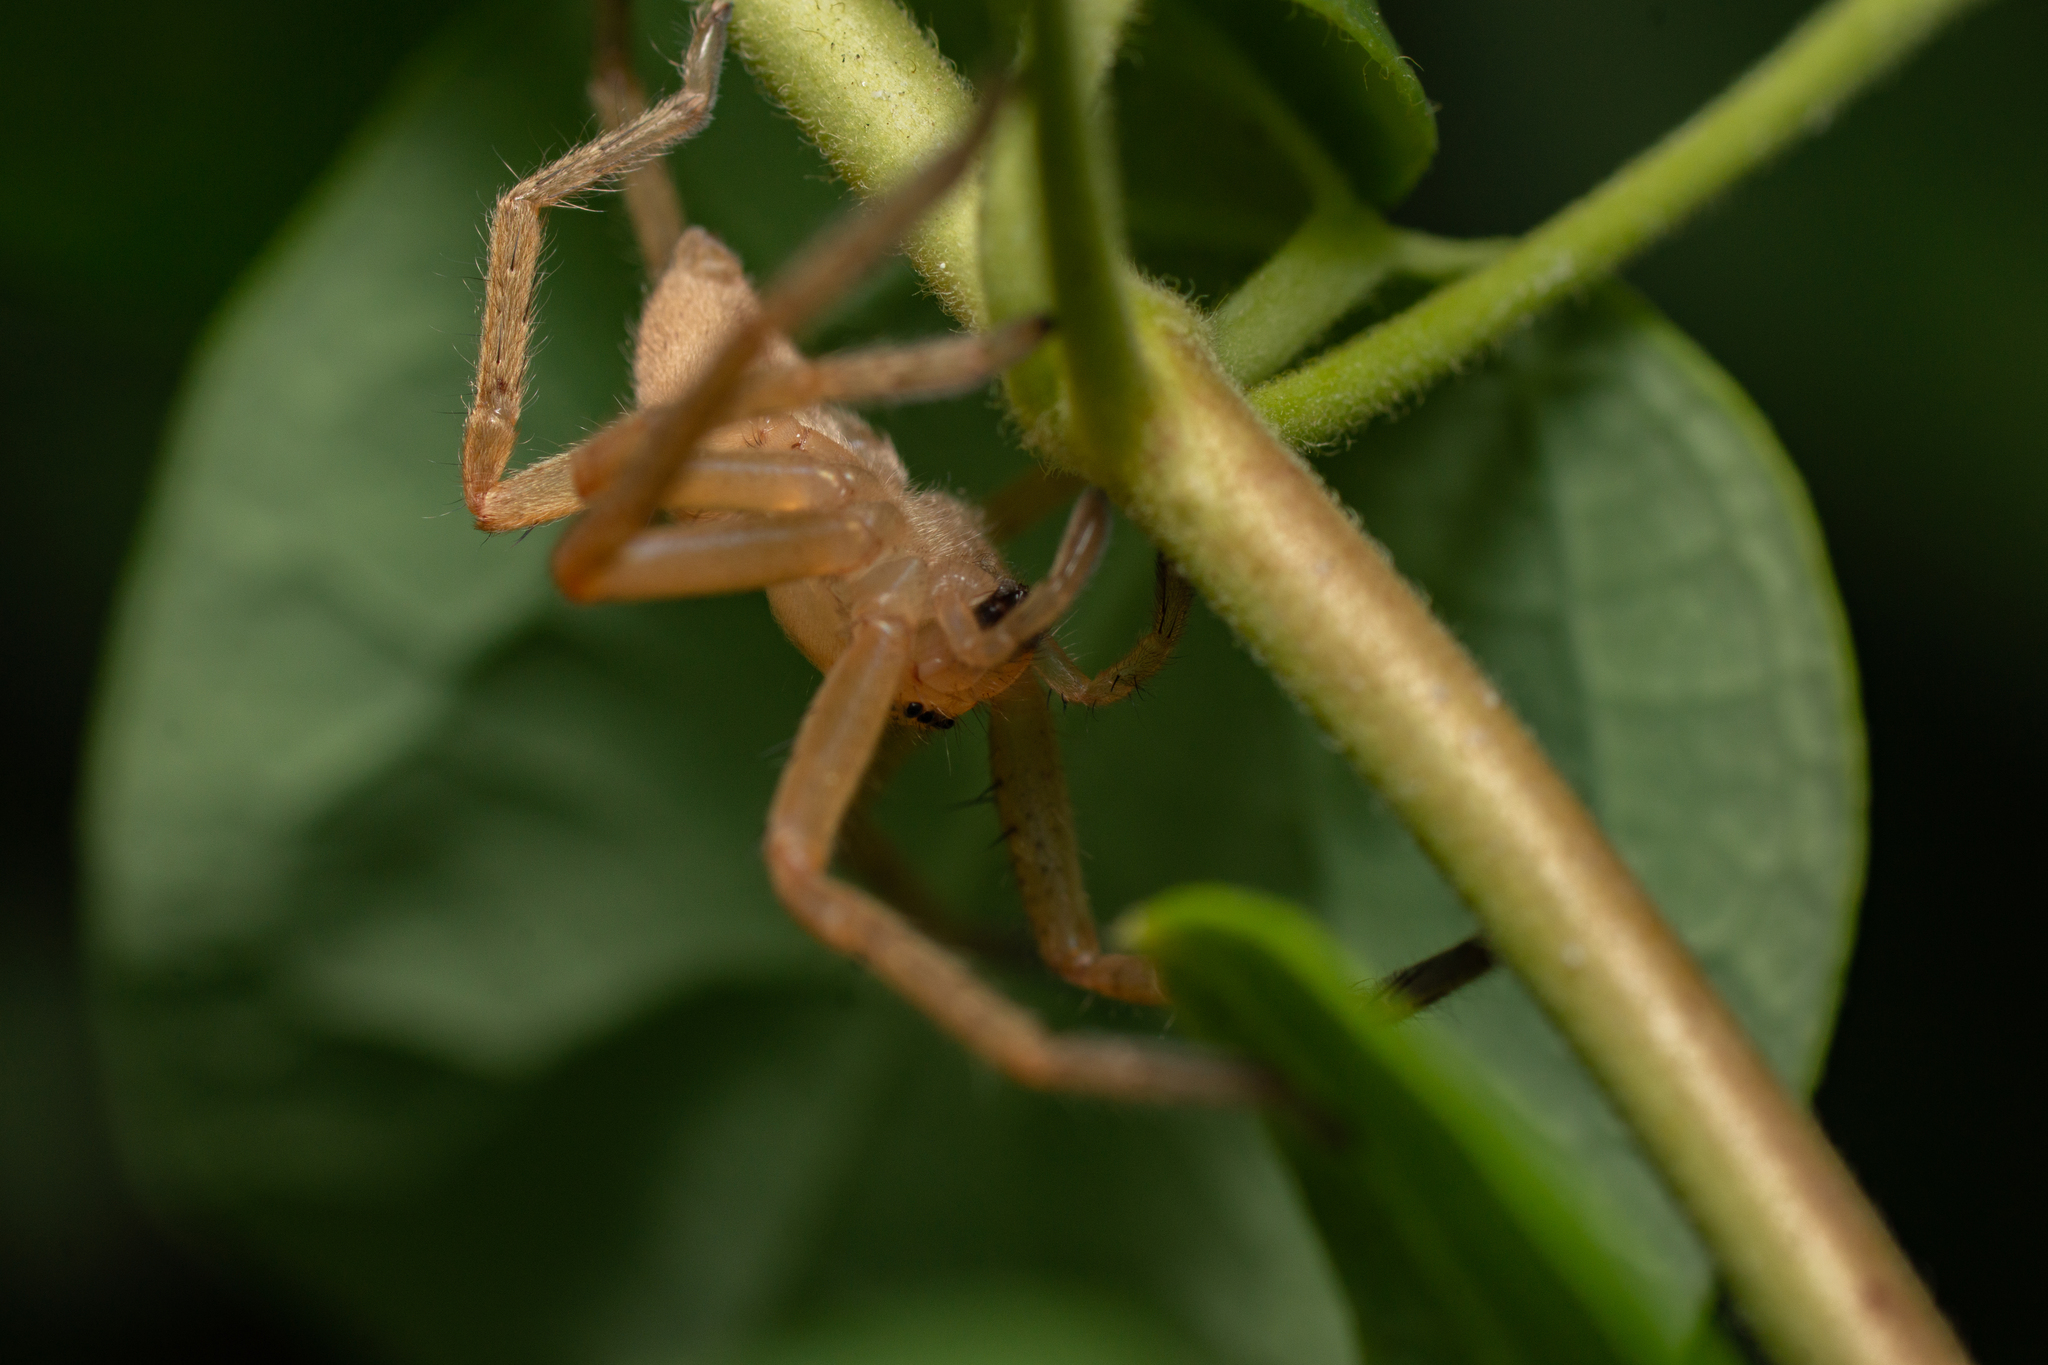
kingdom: Animalia
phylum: Arthropoda
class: Arachnida
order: Araneae
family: Sparassidae
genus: Olios
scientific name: Olios argelasius
